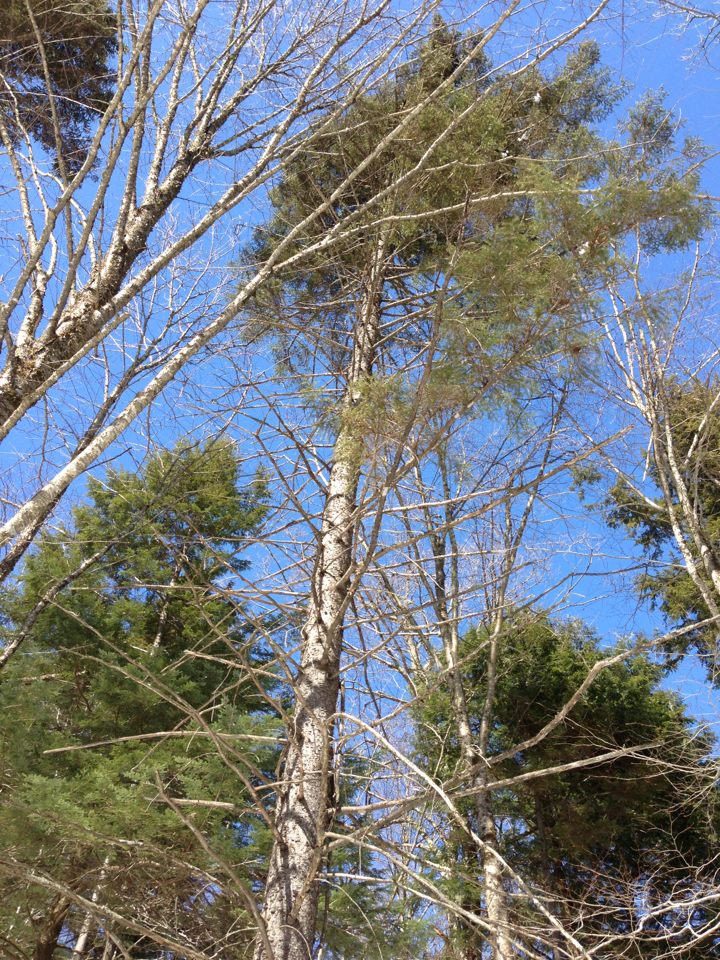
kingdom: Plantae
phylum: Tracheophyta
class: Pinopsida
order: Pinales
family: Pinaceae
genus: Picea
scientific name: Picea rubens
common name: Red spruce
